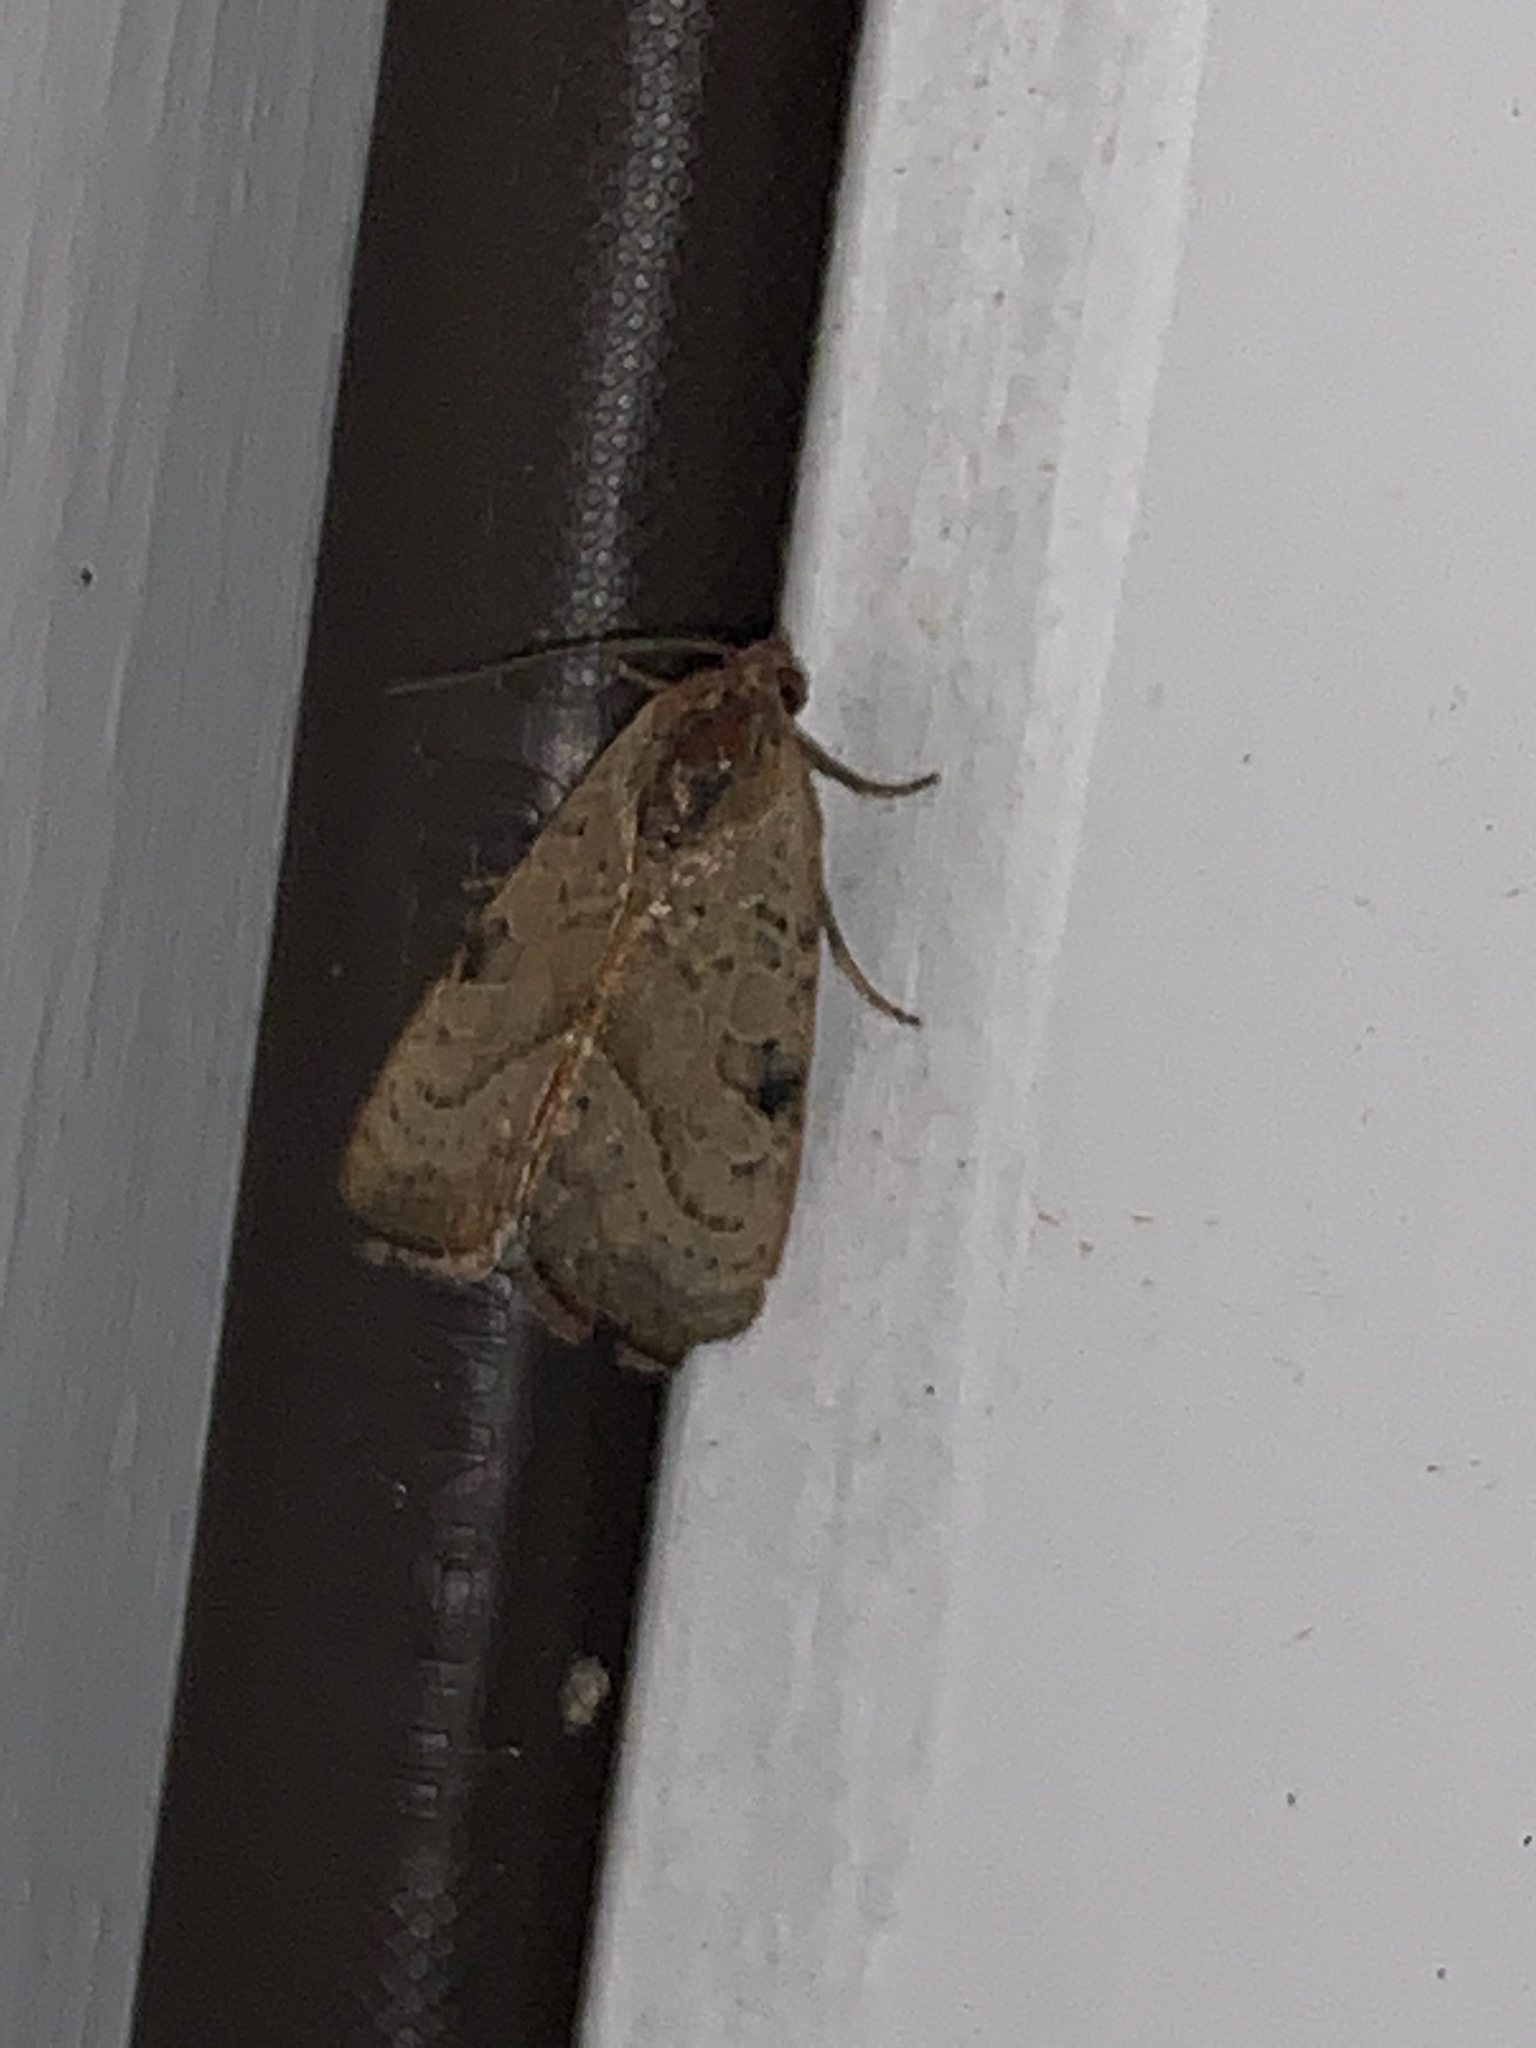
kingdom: Animalia
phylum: Arthropoda
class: Insecta
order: Lepidoptera
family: Noctuidae
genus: Galgula
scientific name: Galgula partita
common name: Wedgeling
